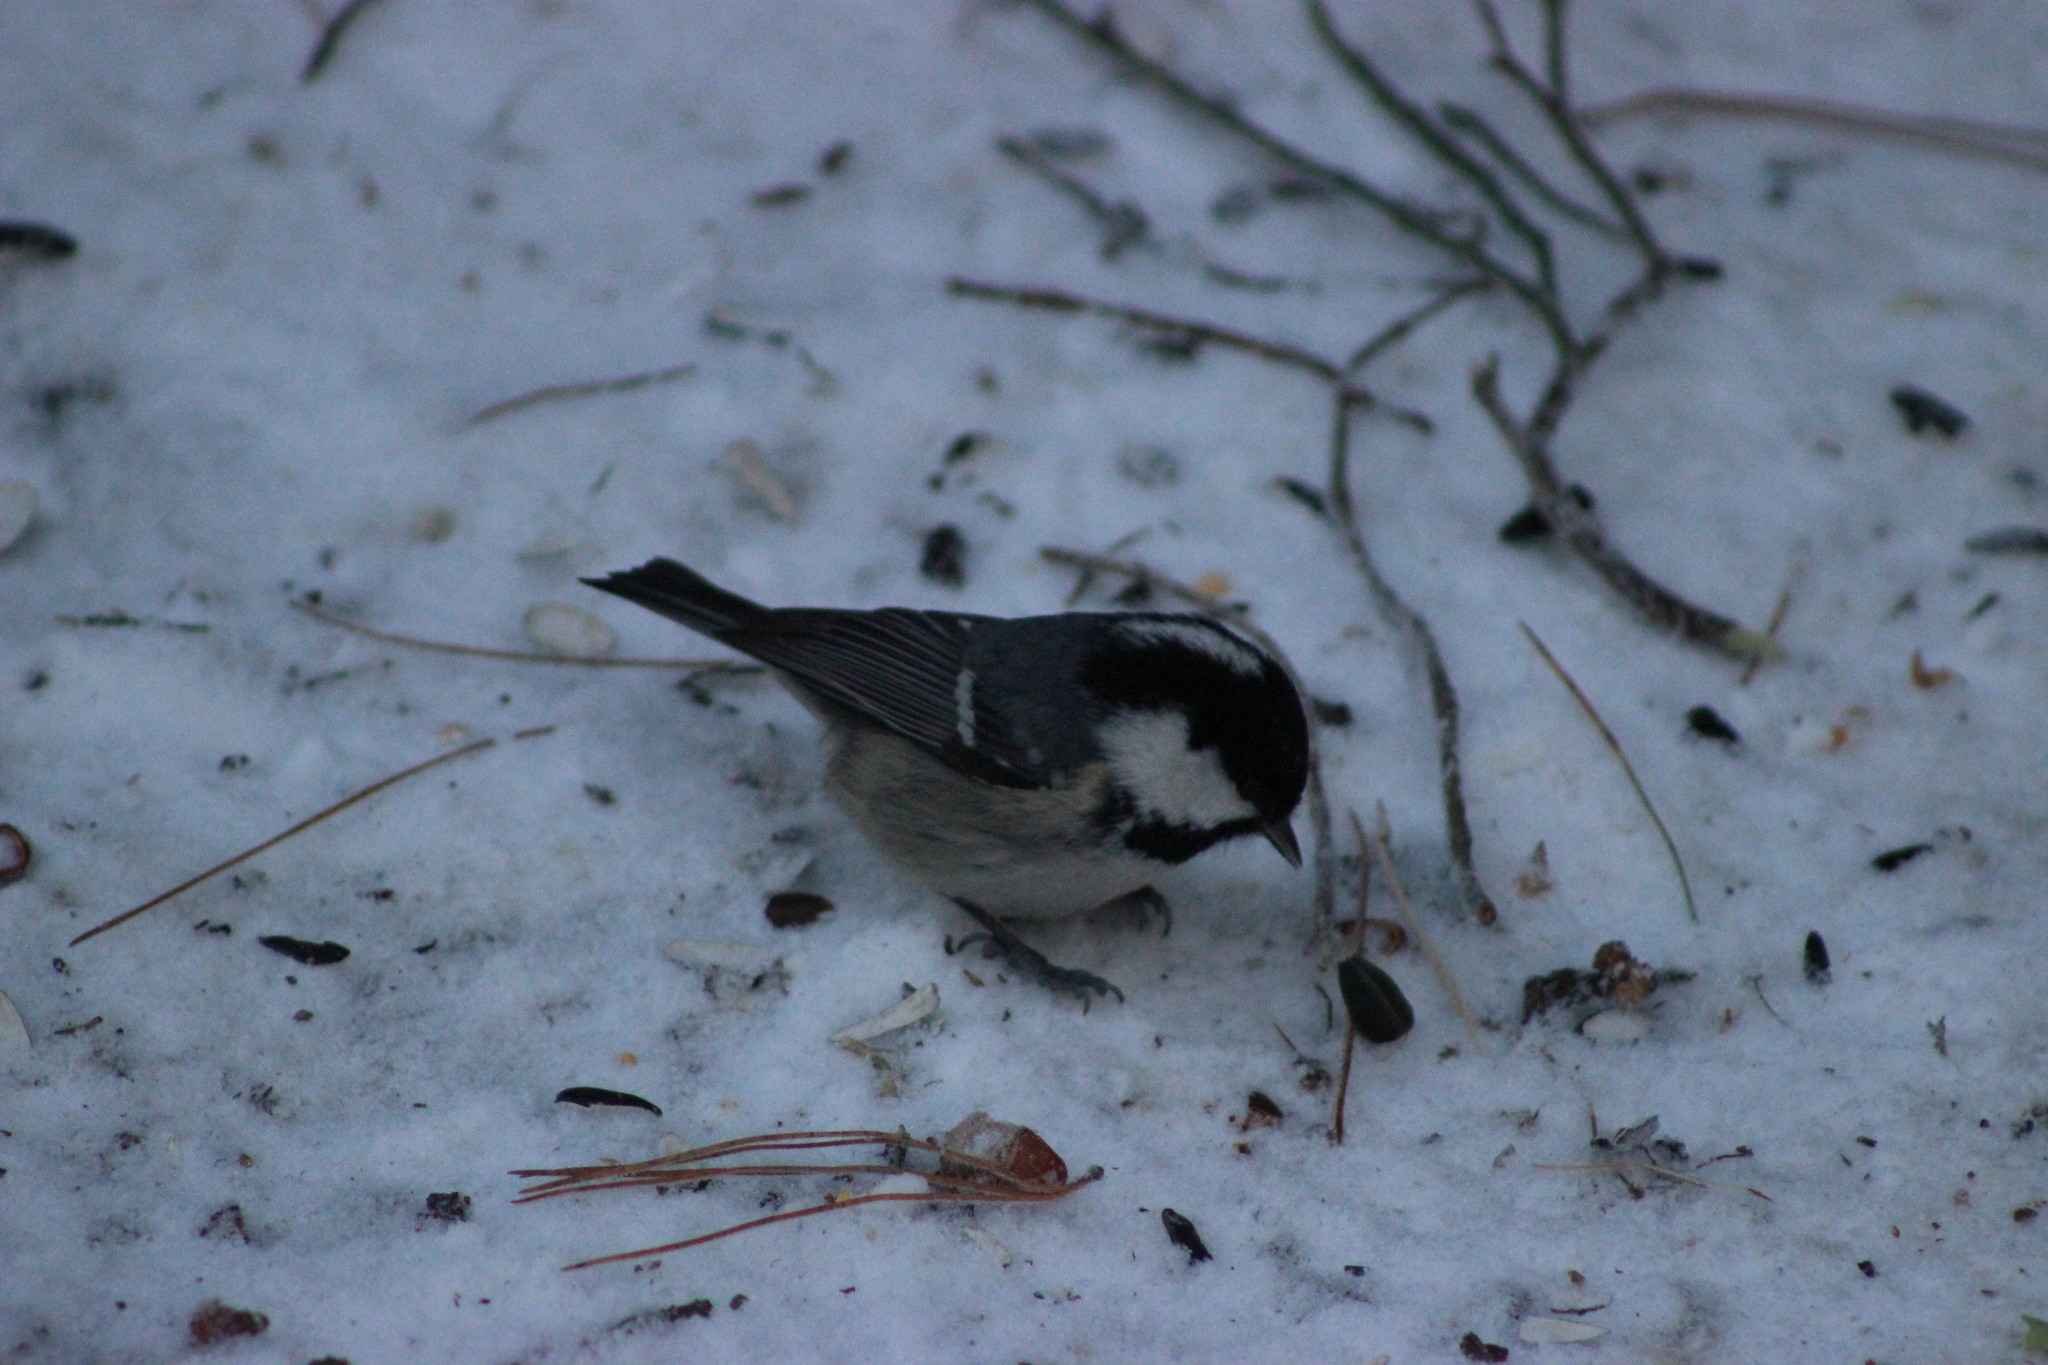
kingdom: Animalia
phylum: Chordata
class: Aves
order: Passeriformes
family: Paridae
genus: Periparus
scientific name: Periparus ater
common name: Coal tit
